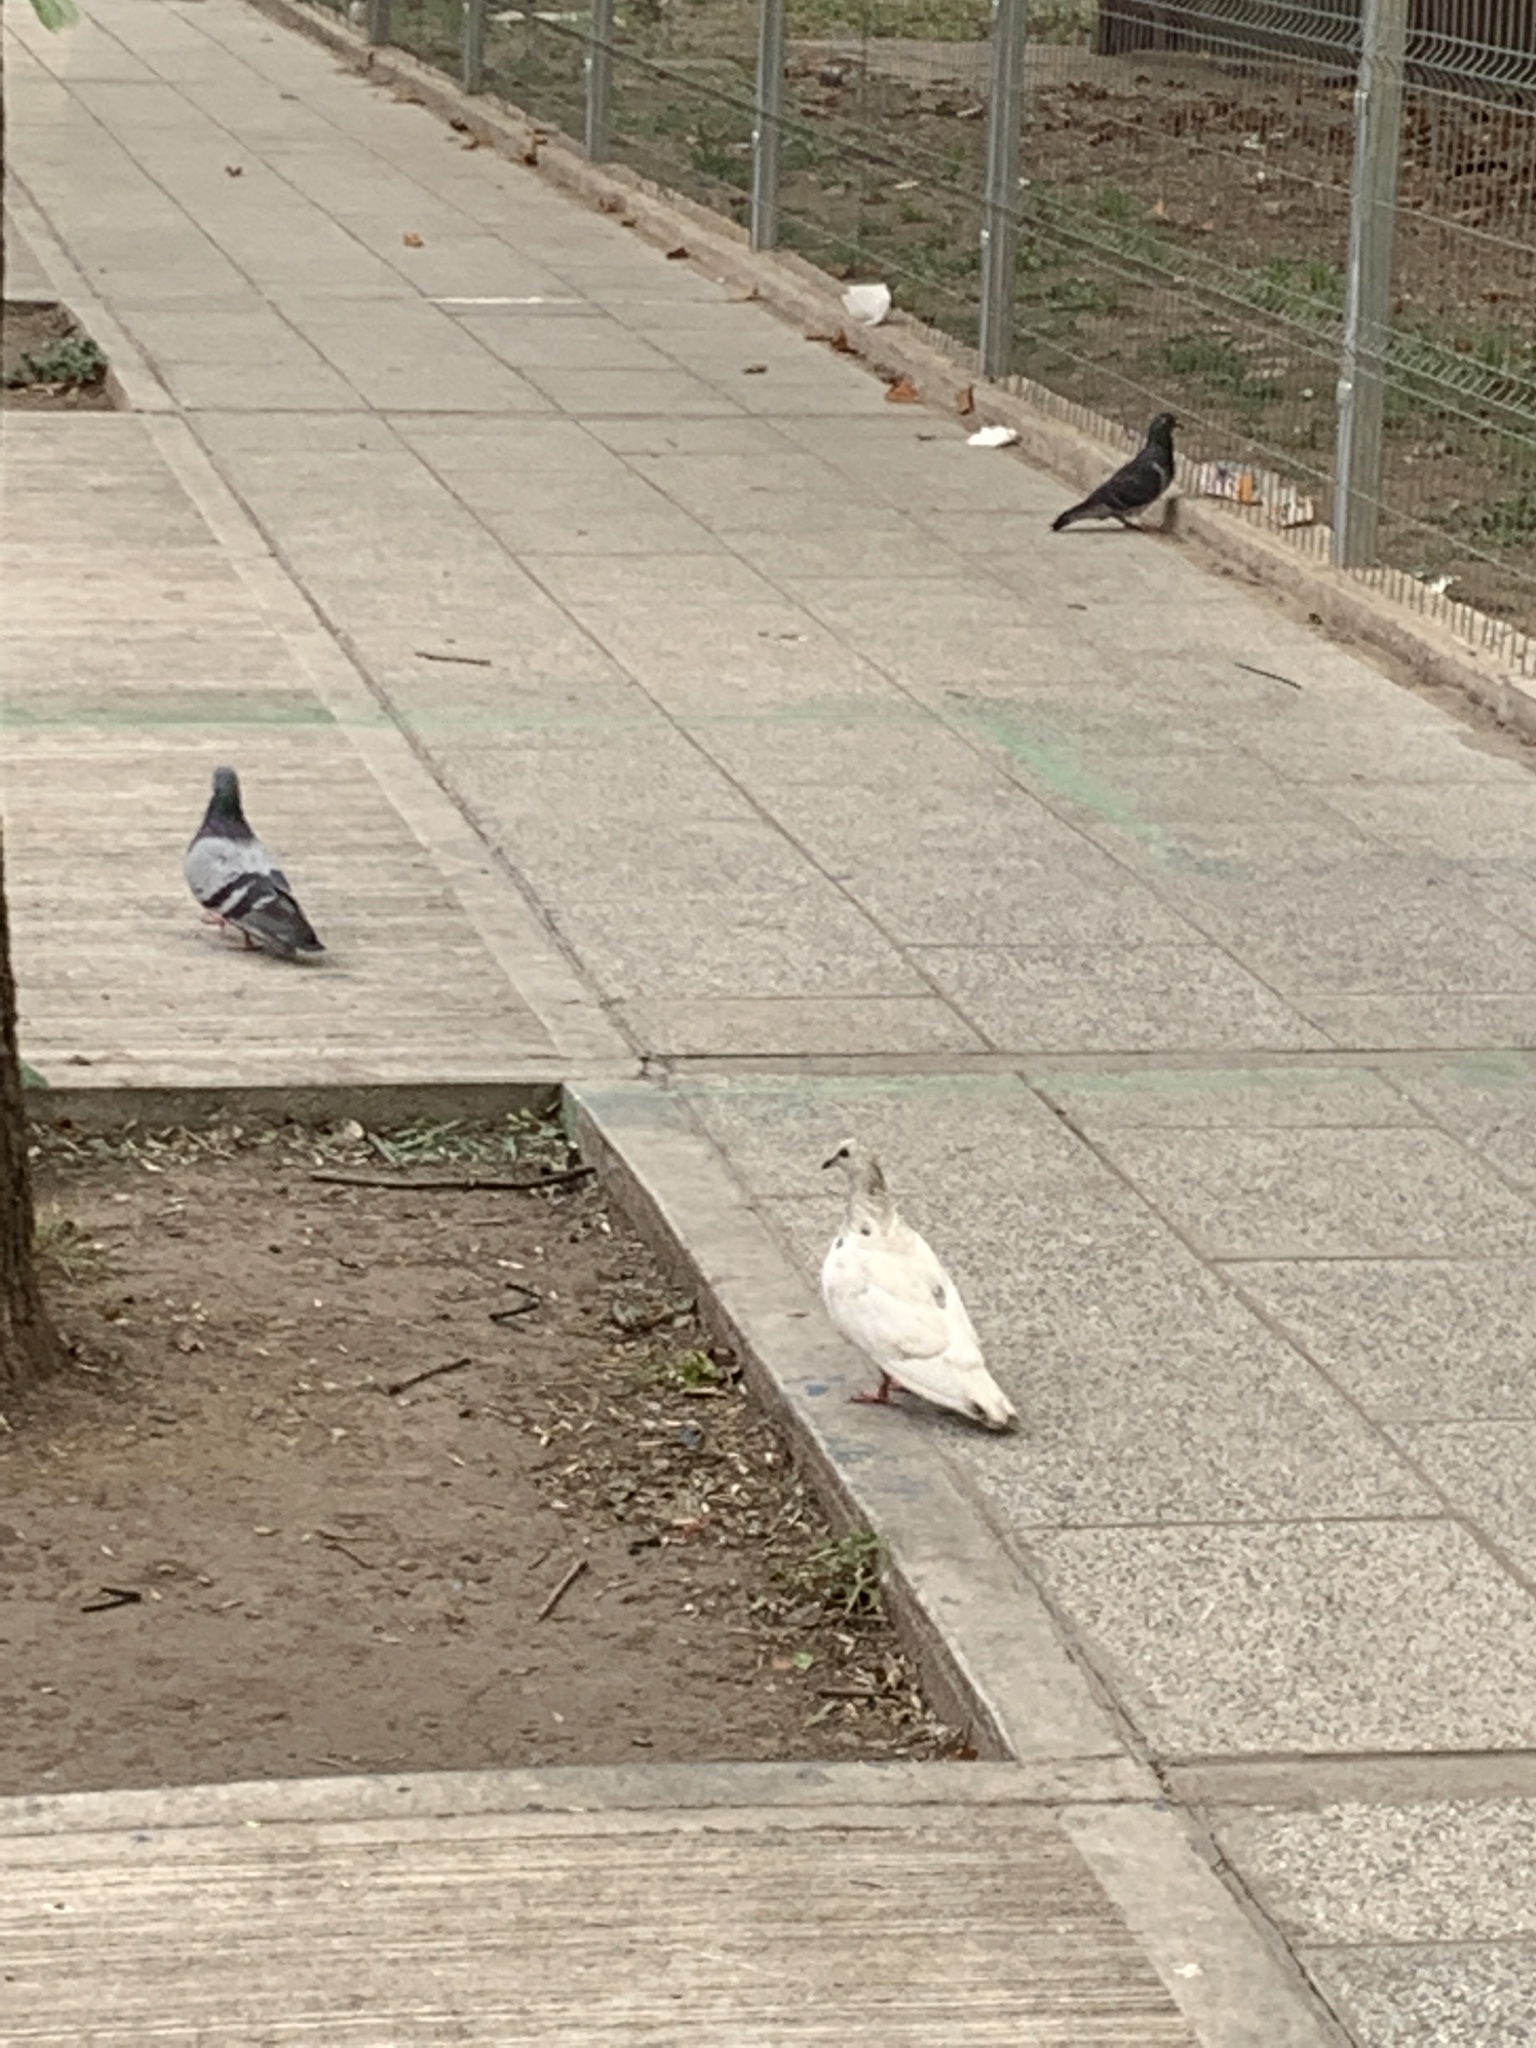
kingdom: Animalia
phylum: Chordata
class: Aves
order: Columbiformes
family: Columbidae
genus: Columba
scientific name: Columba livia
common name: Rock pigeon
